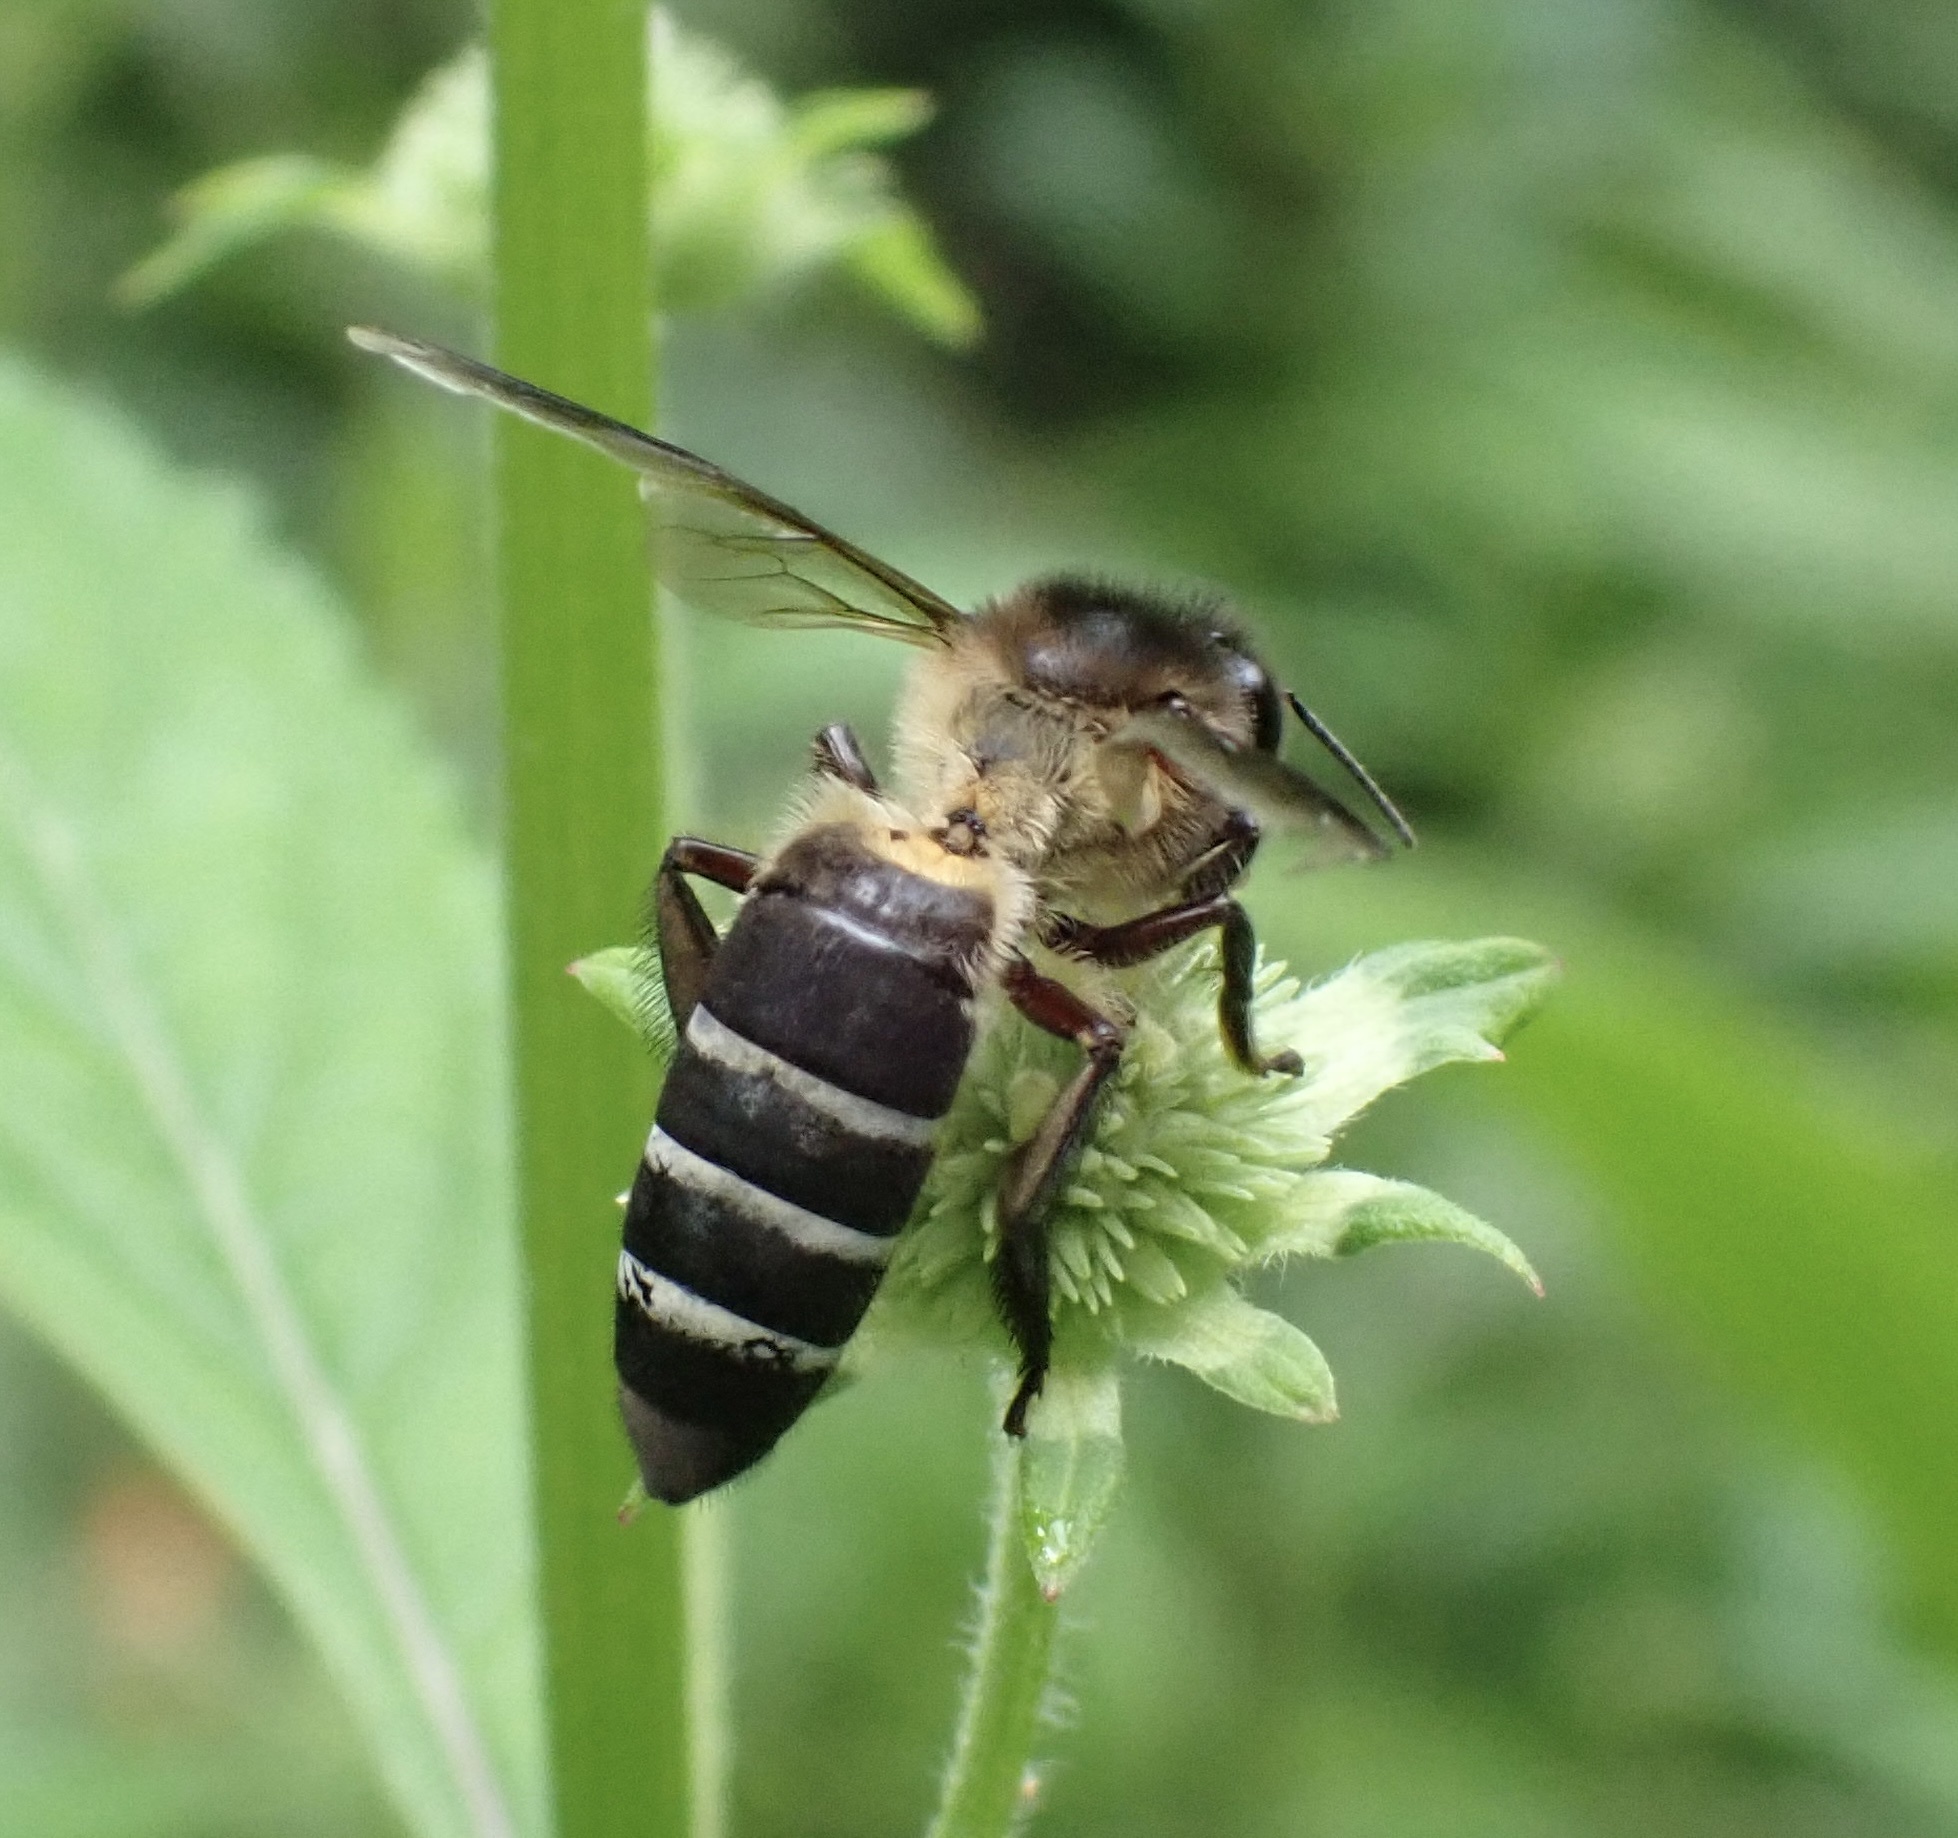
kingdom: Animalia
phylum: Arthropoda
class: Insecta
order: Hymenoptera
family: Apidae
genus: Apis
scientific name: Apis dorsata
